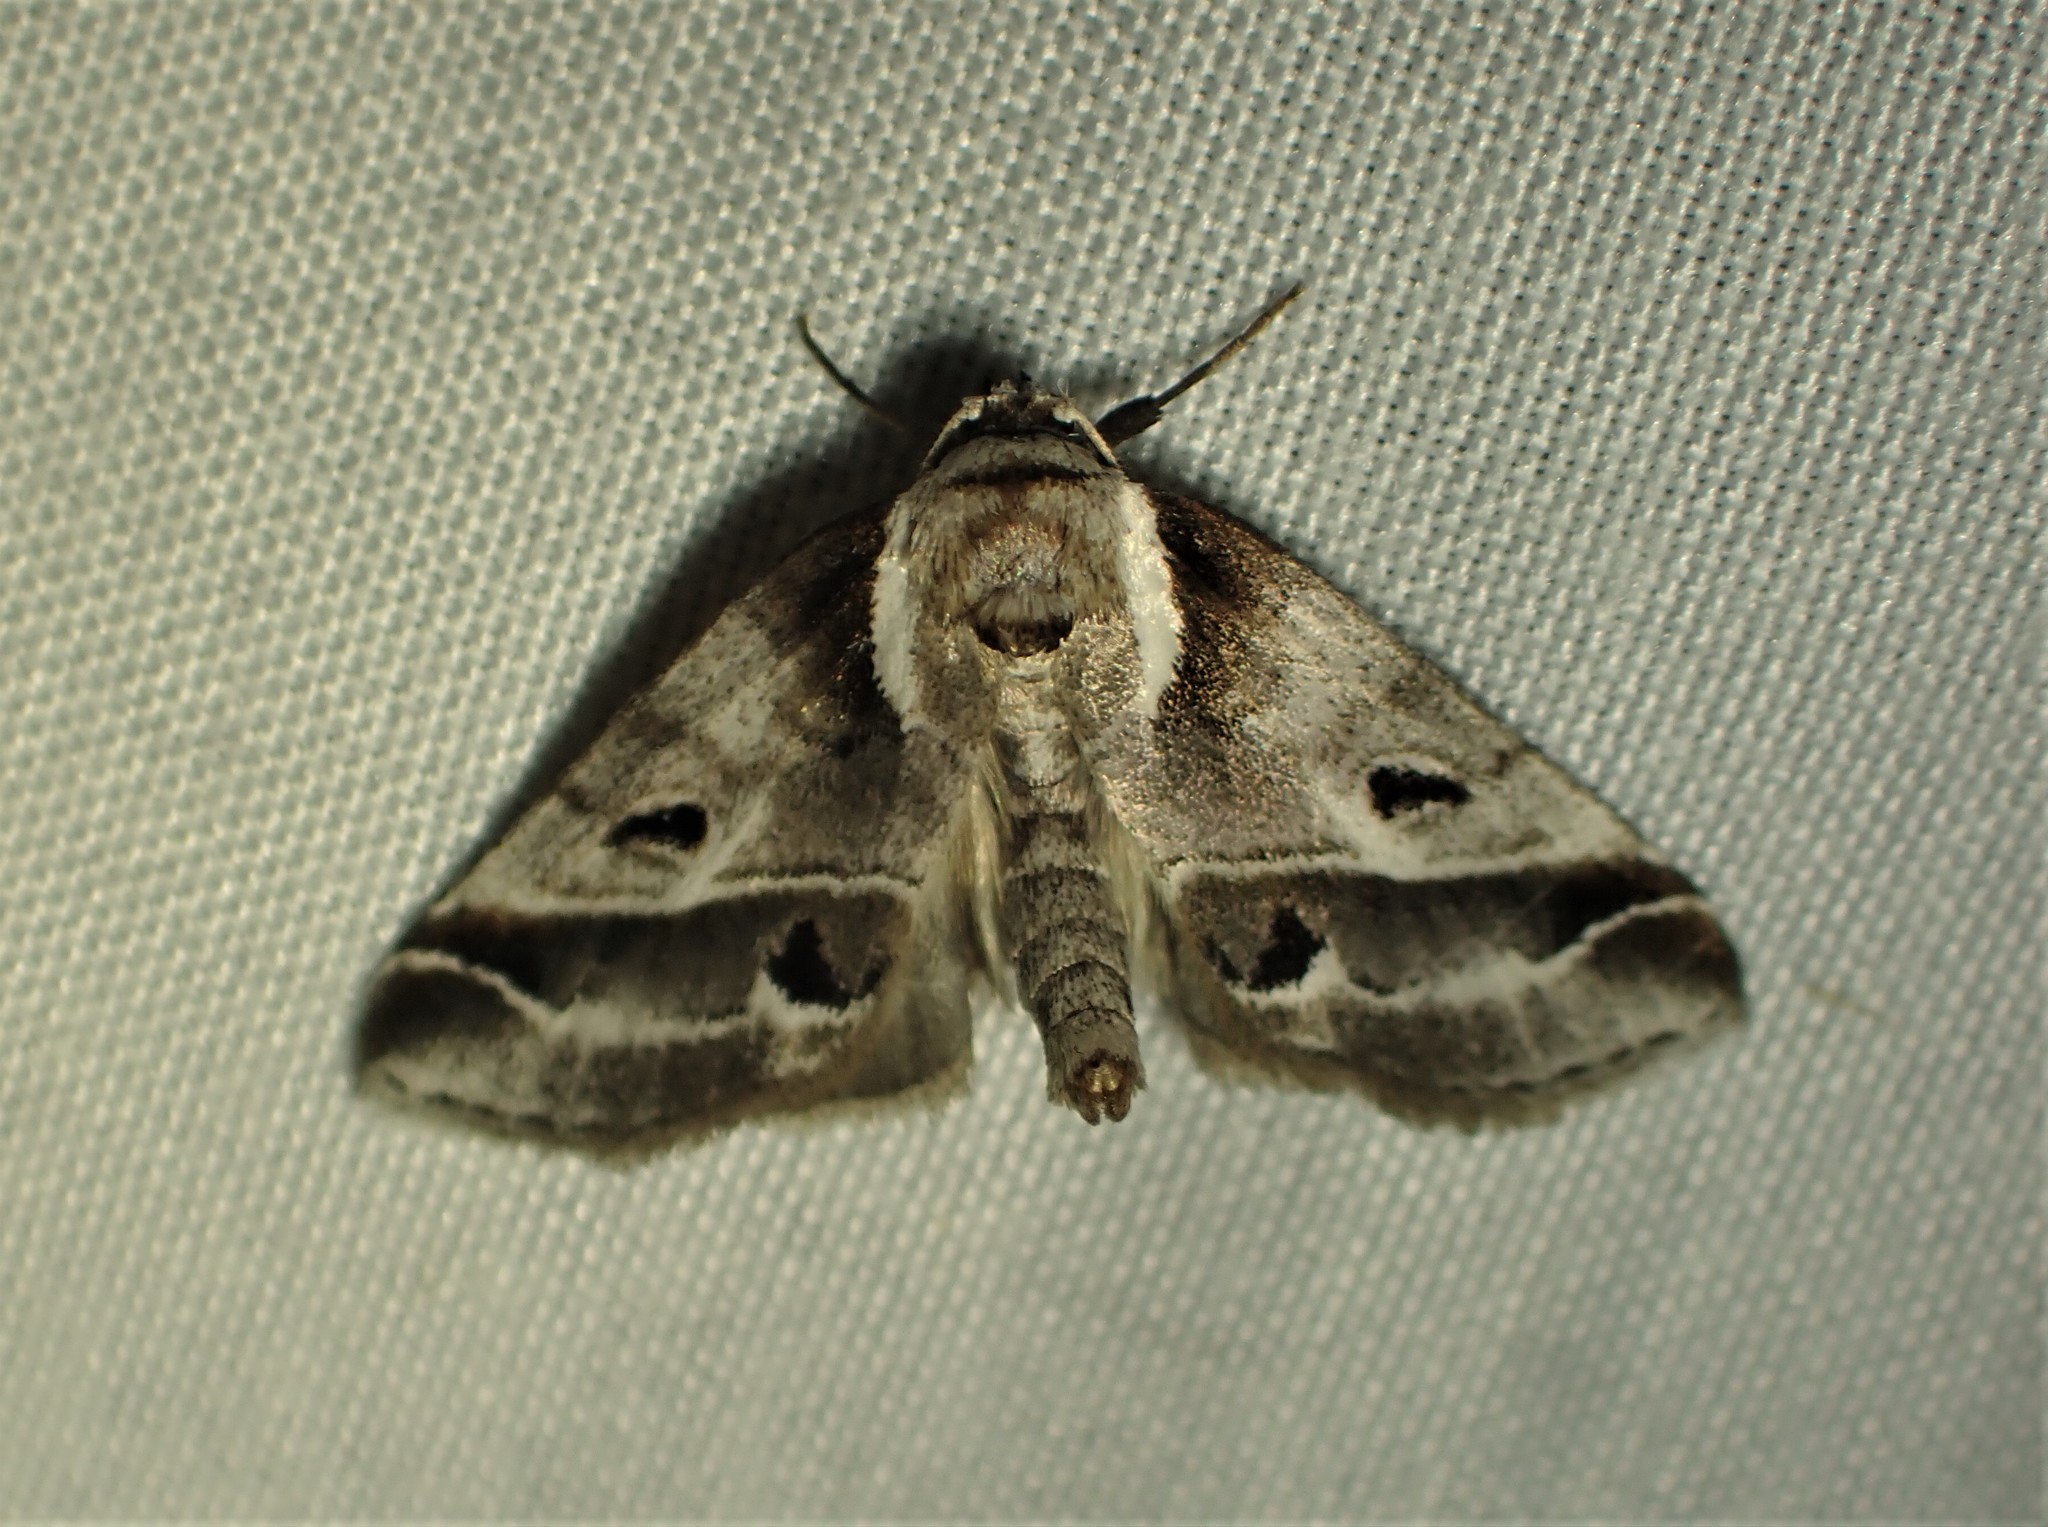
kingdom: Animalia
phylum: Arthropoda
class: Insecta
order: Lepidoptera
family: Nolidae
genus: Baileya
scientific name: Baileya doubledayi
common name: Doubleday's baileya moth
